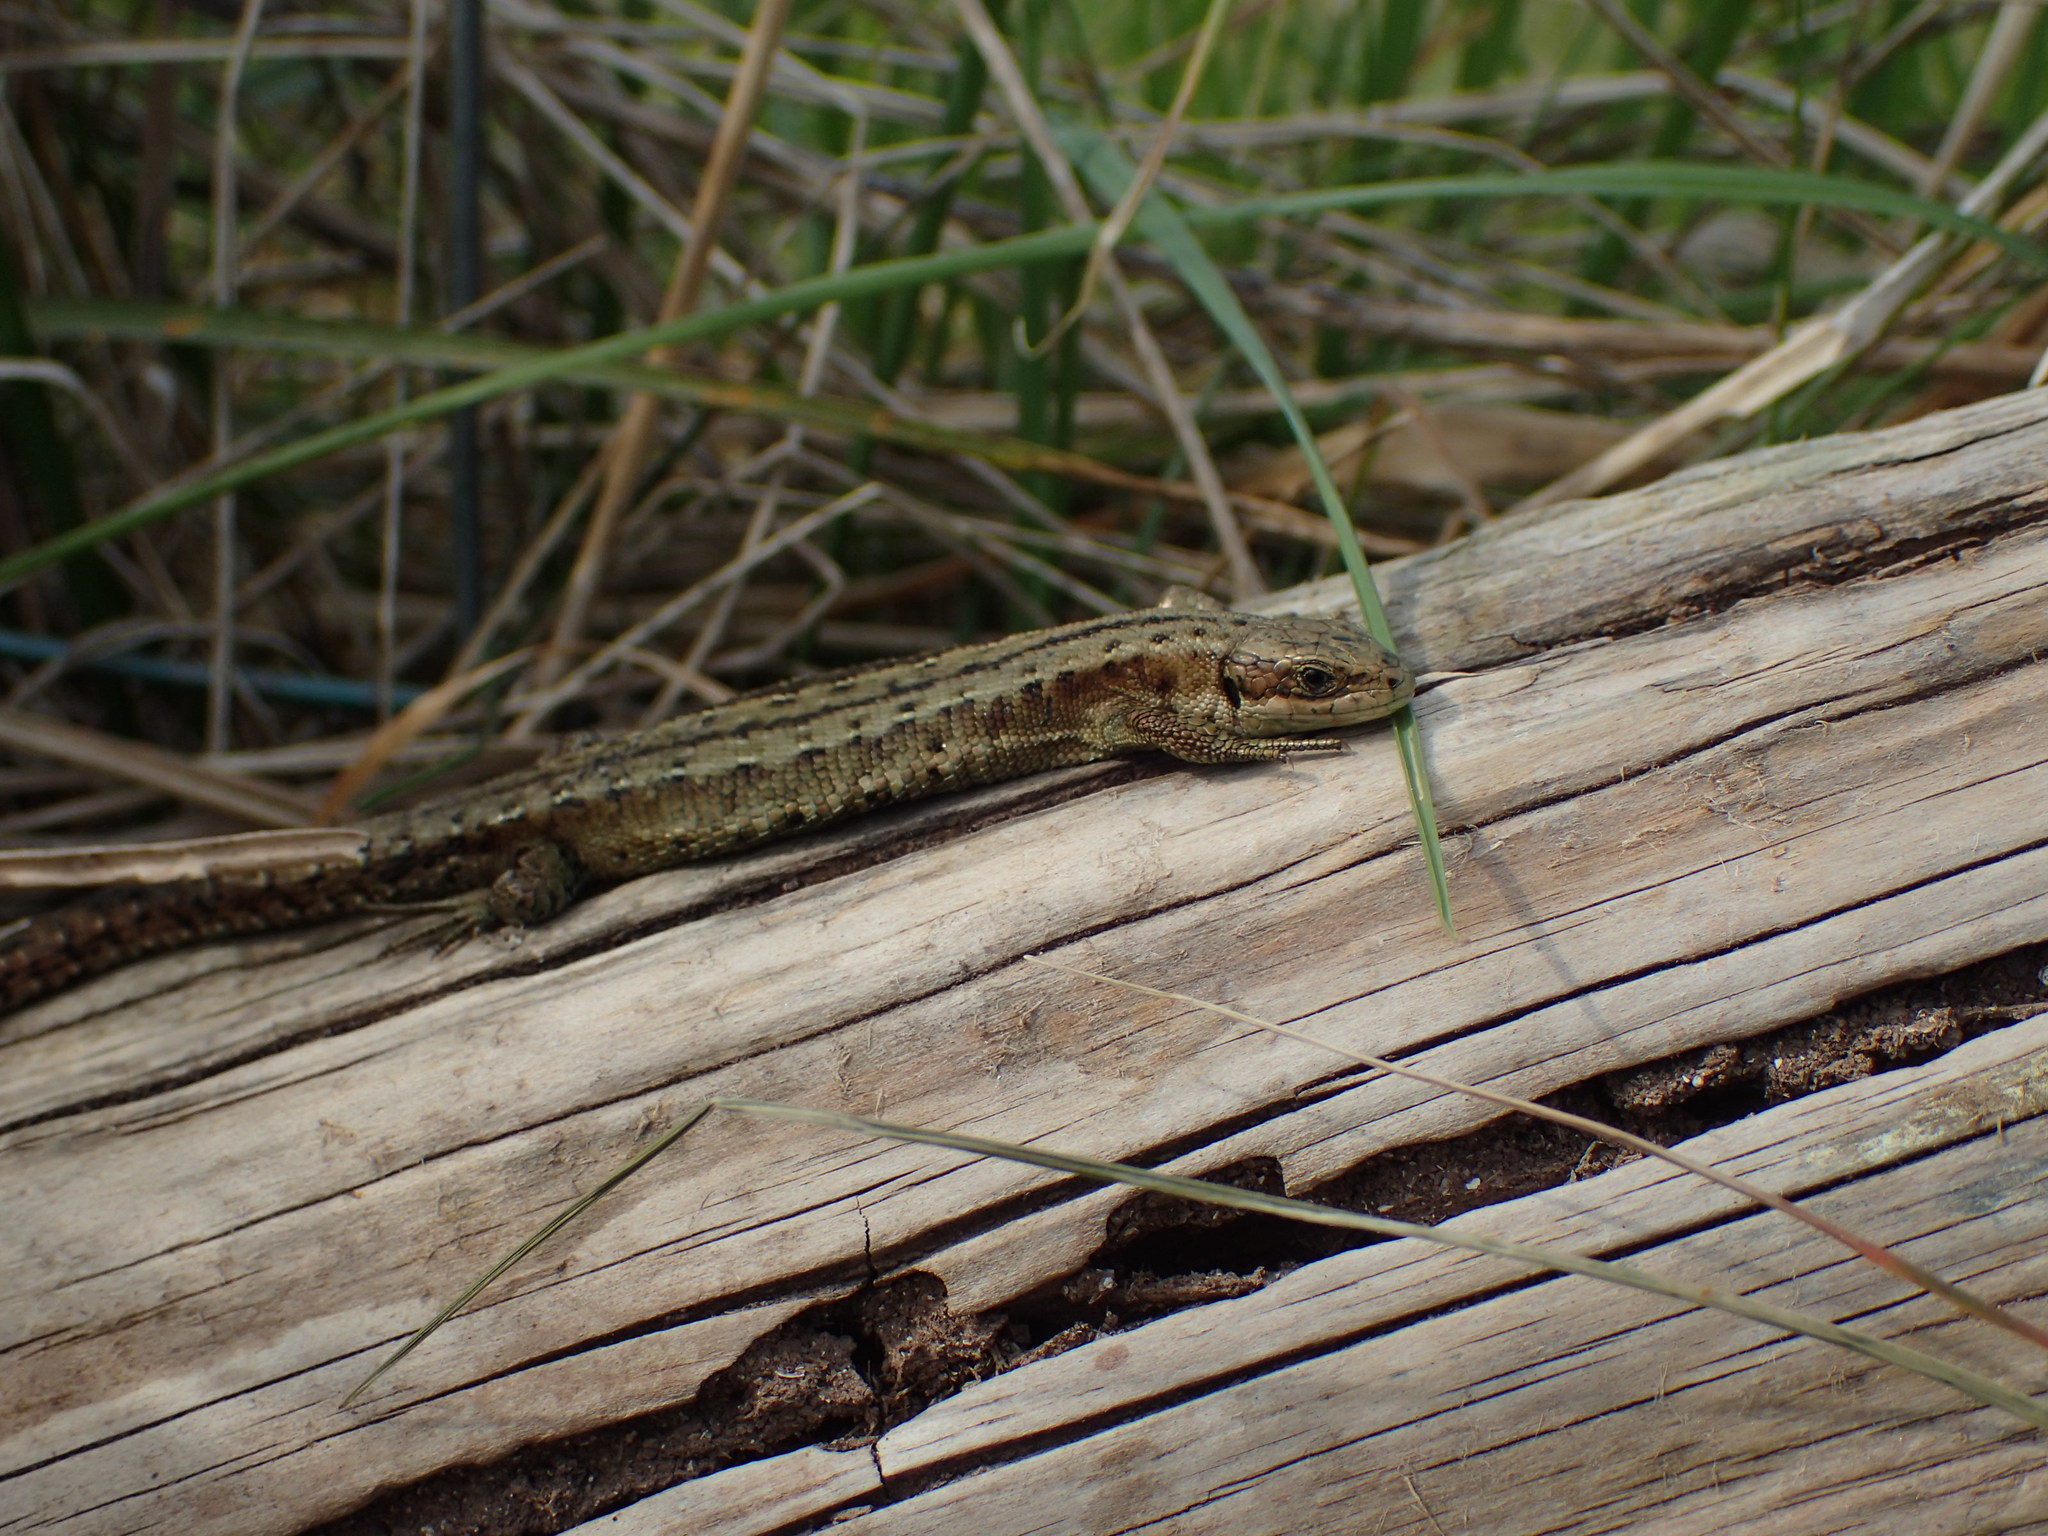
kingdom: Animalia
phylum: Chordata
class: Squamata
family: Lacertidae
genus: Zootoca
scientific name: Zootoca vivipara
